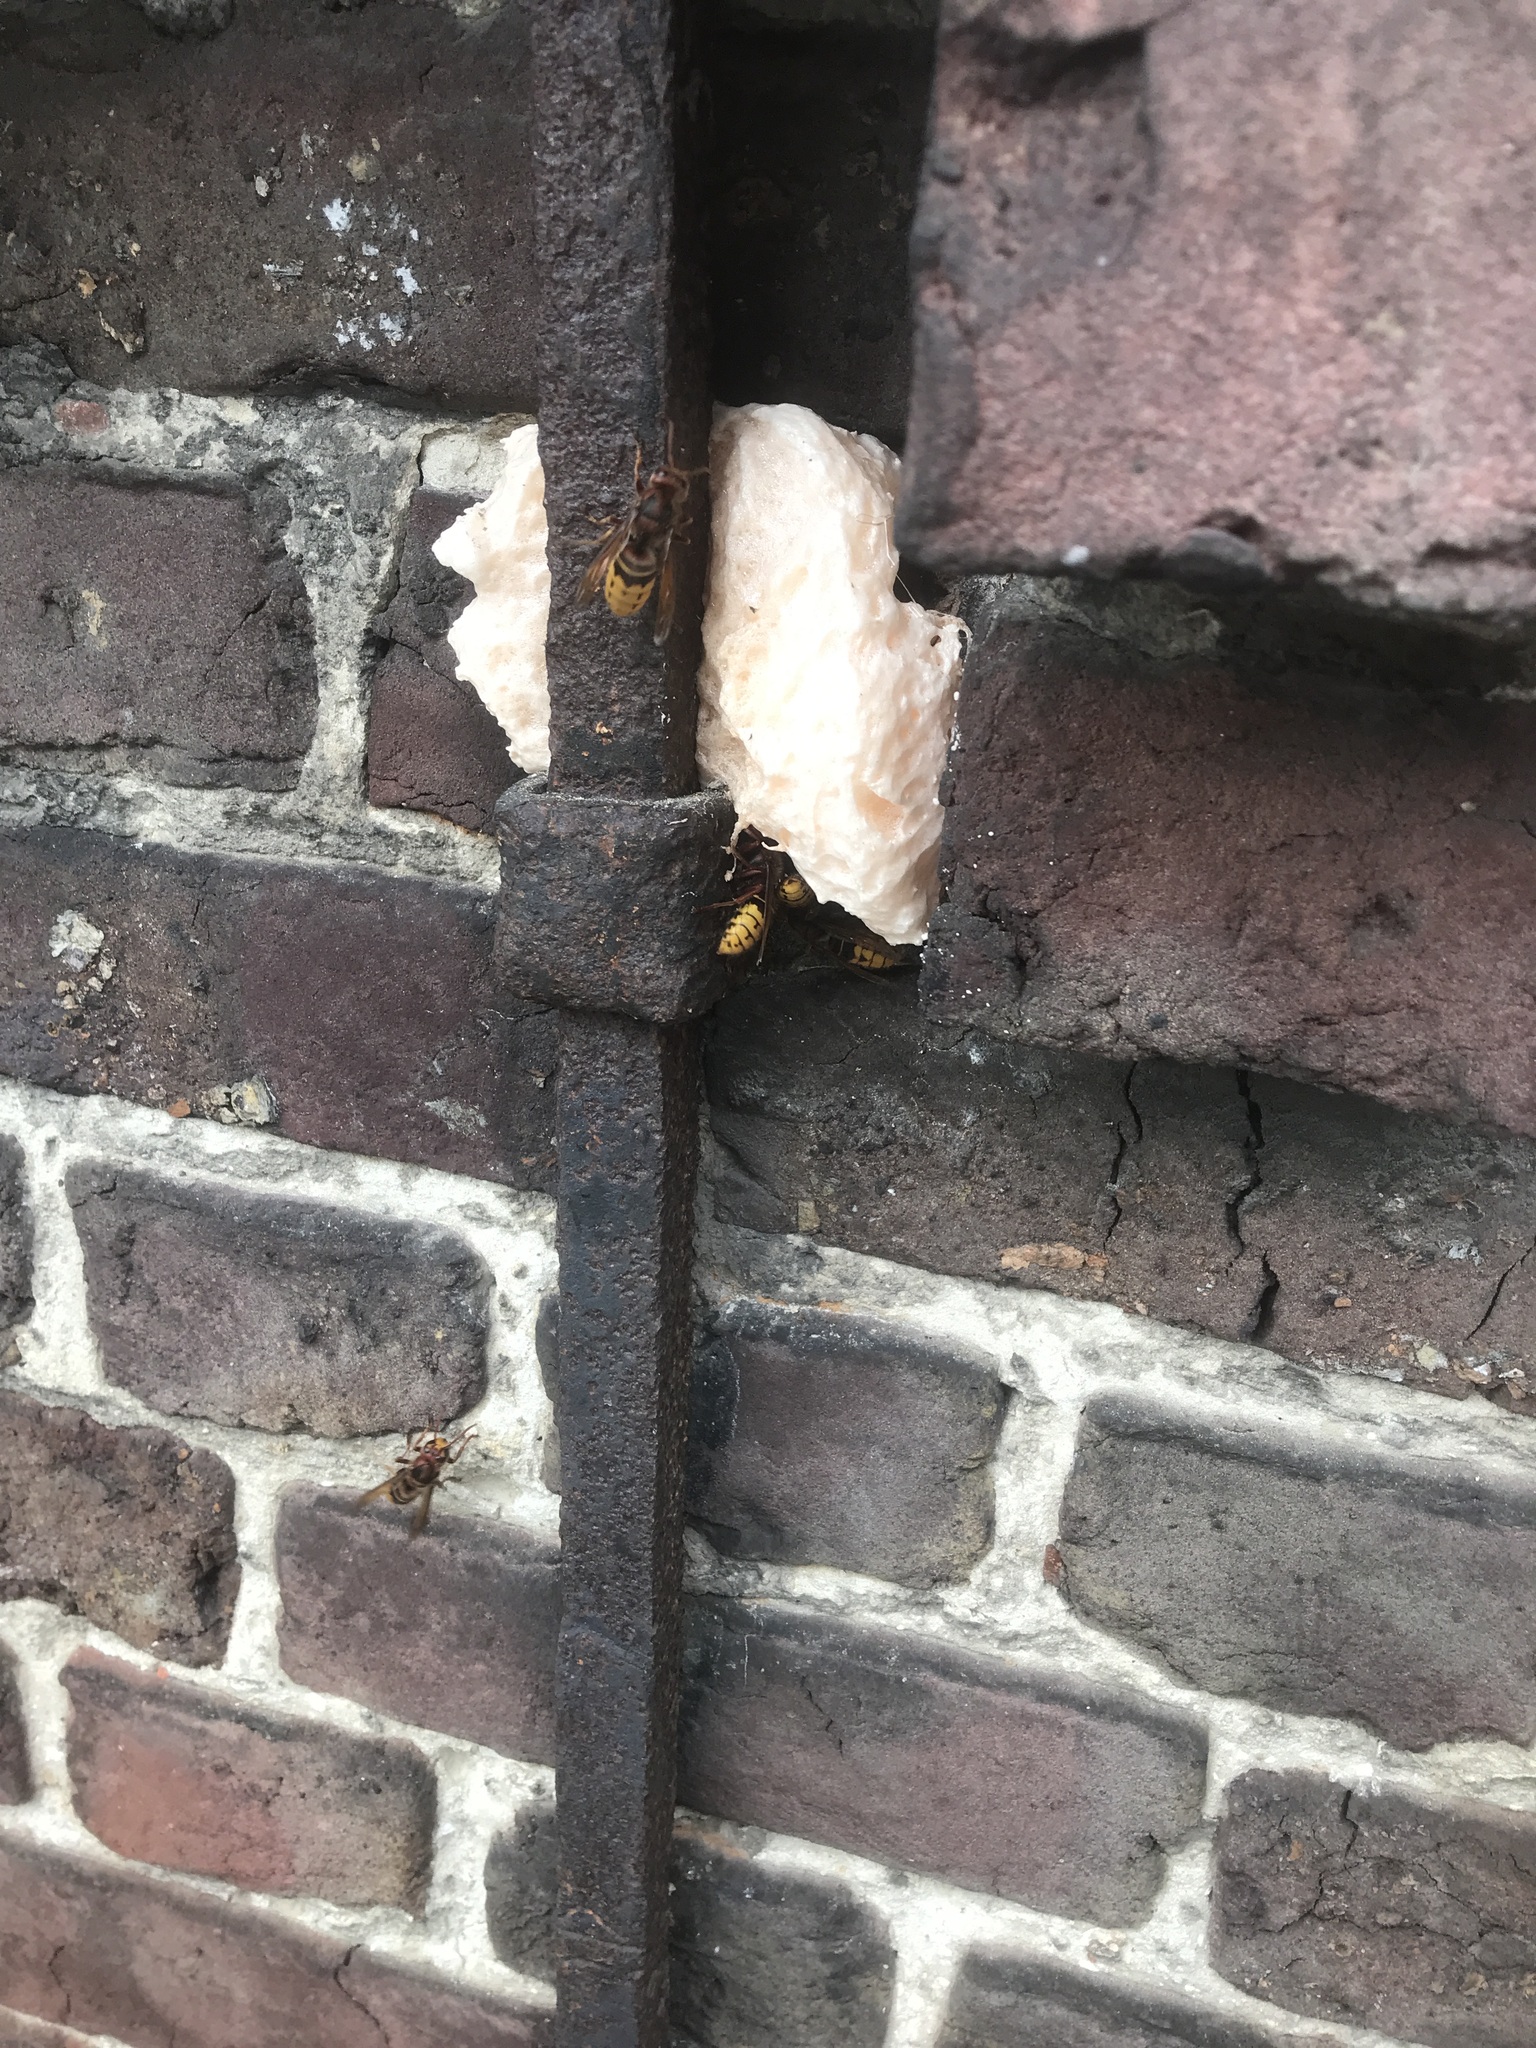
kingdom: Animalia
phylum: Arthropoda
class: Insecta
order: Hymenoptera
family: Vespidae
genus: Vespa
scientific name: Vespa crabro
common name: Hornet
